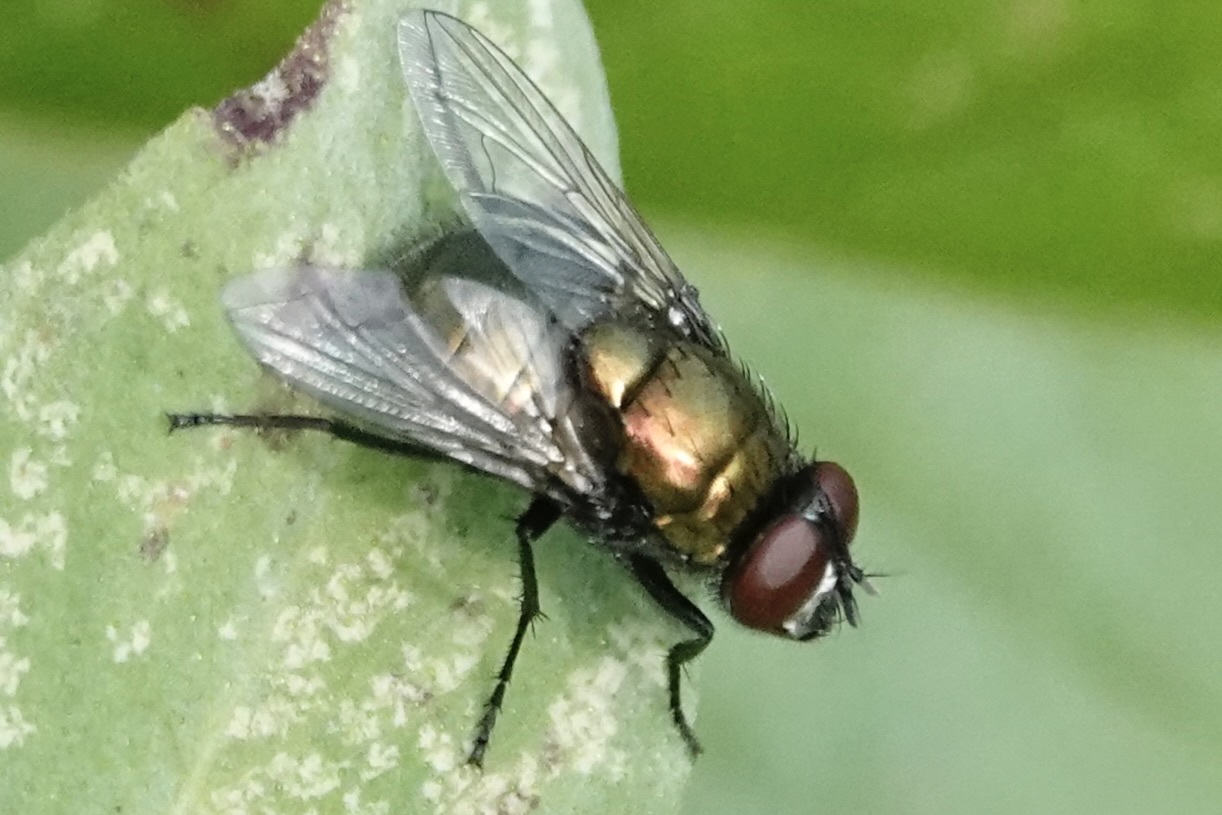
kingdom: Animalia
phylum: Arthropoda
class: Insecta
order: Diptera
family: Muscidae
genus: Neomyia
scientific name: Neomyia cornicina
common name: House fly
